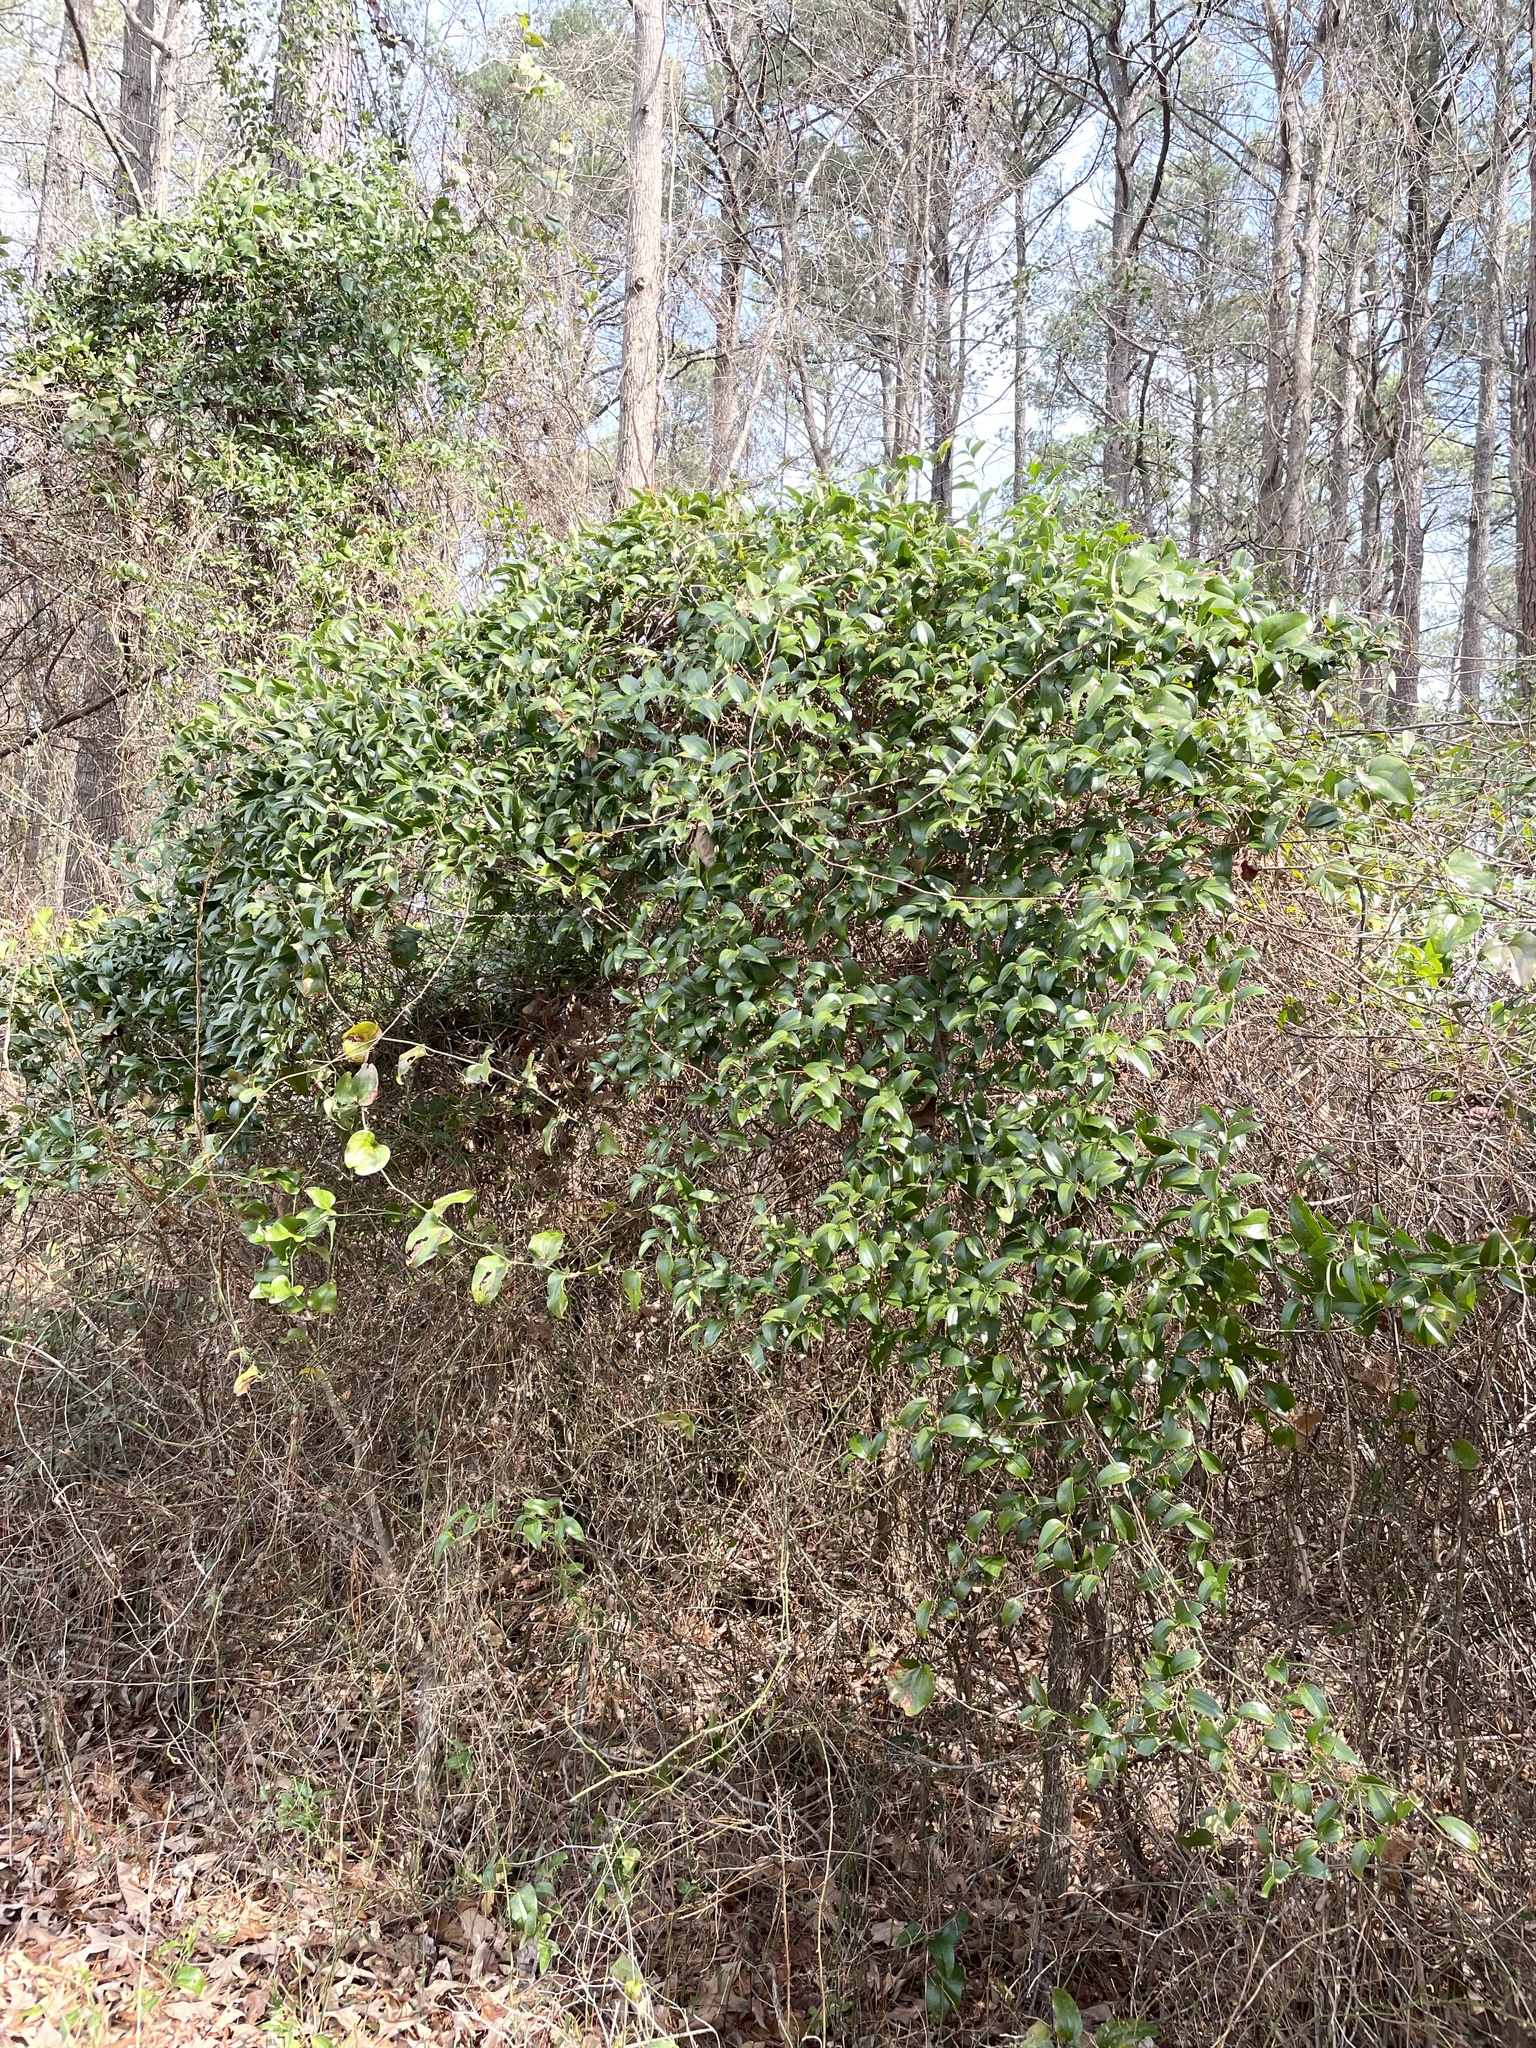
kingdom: Plantae
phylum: Tracheophyta
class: Liliopsida
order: Liliales
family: Smilacaceae
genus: Smilax
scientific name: Smilax maritima
